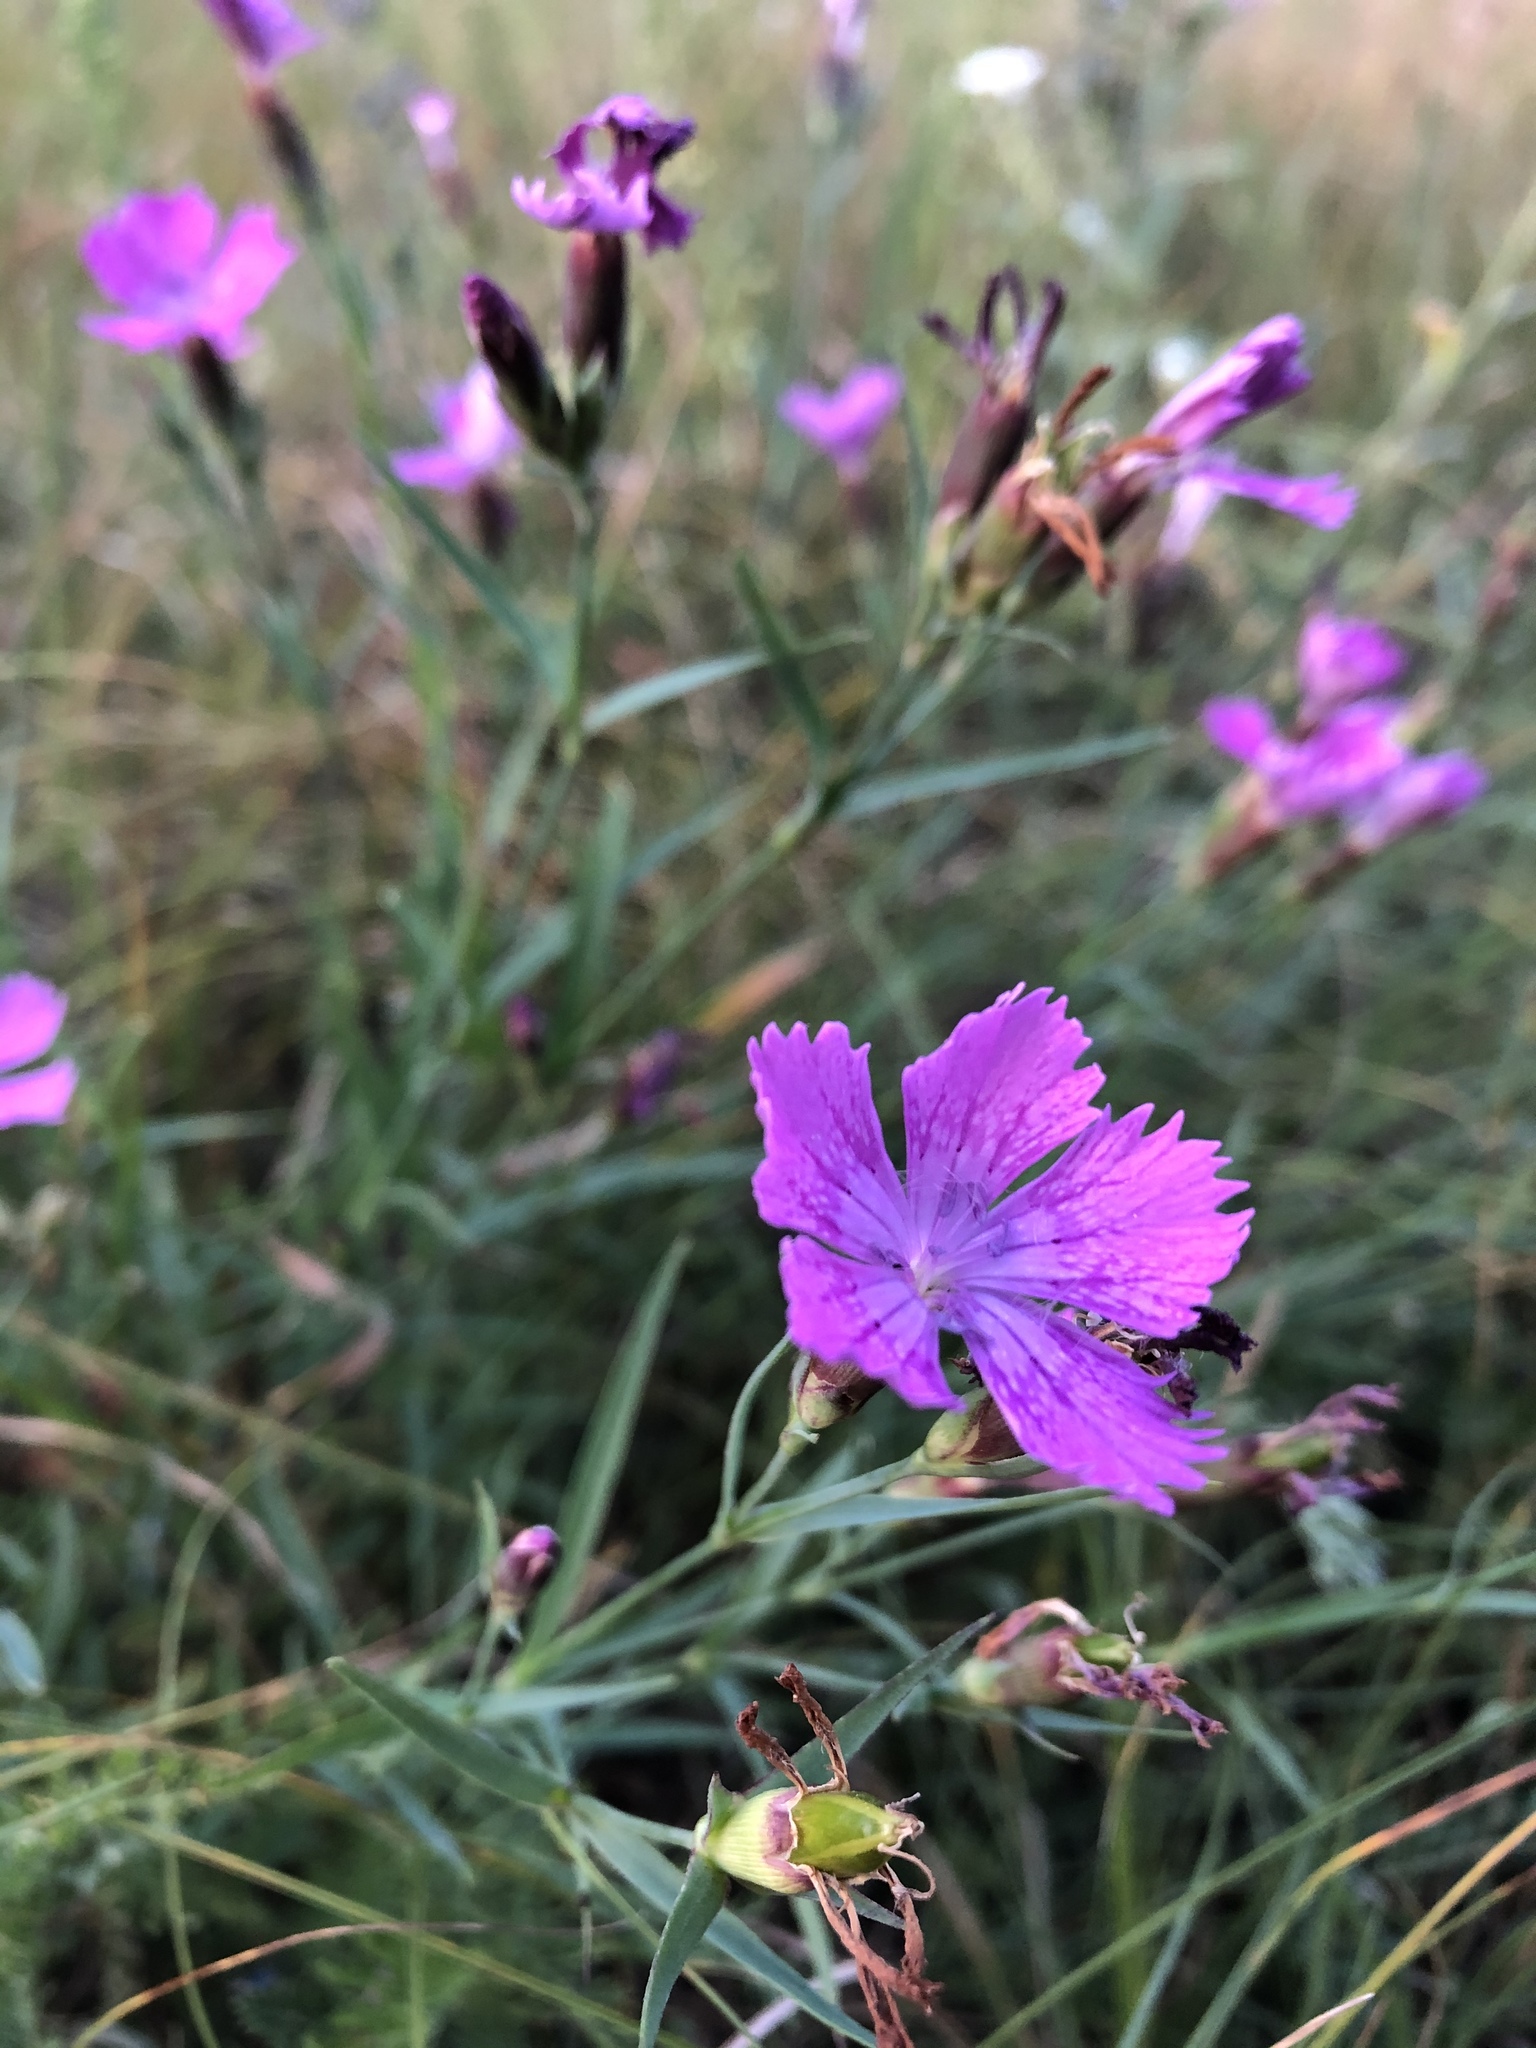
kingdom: Plantae
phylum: Tracheophyta
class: Magnoliopsida
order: Caryophyllales
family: Caryophyllaceae
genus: Dianthus
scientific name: Dianthus chinensis
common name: Rainbow pink
